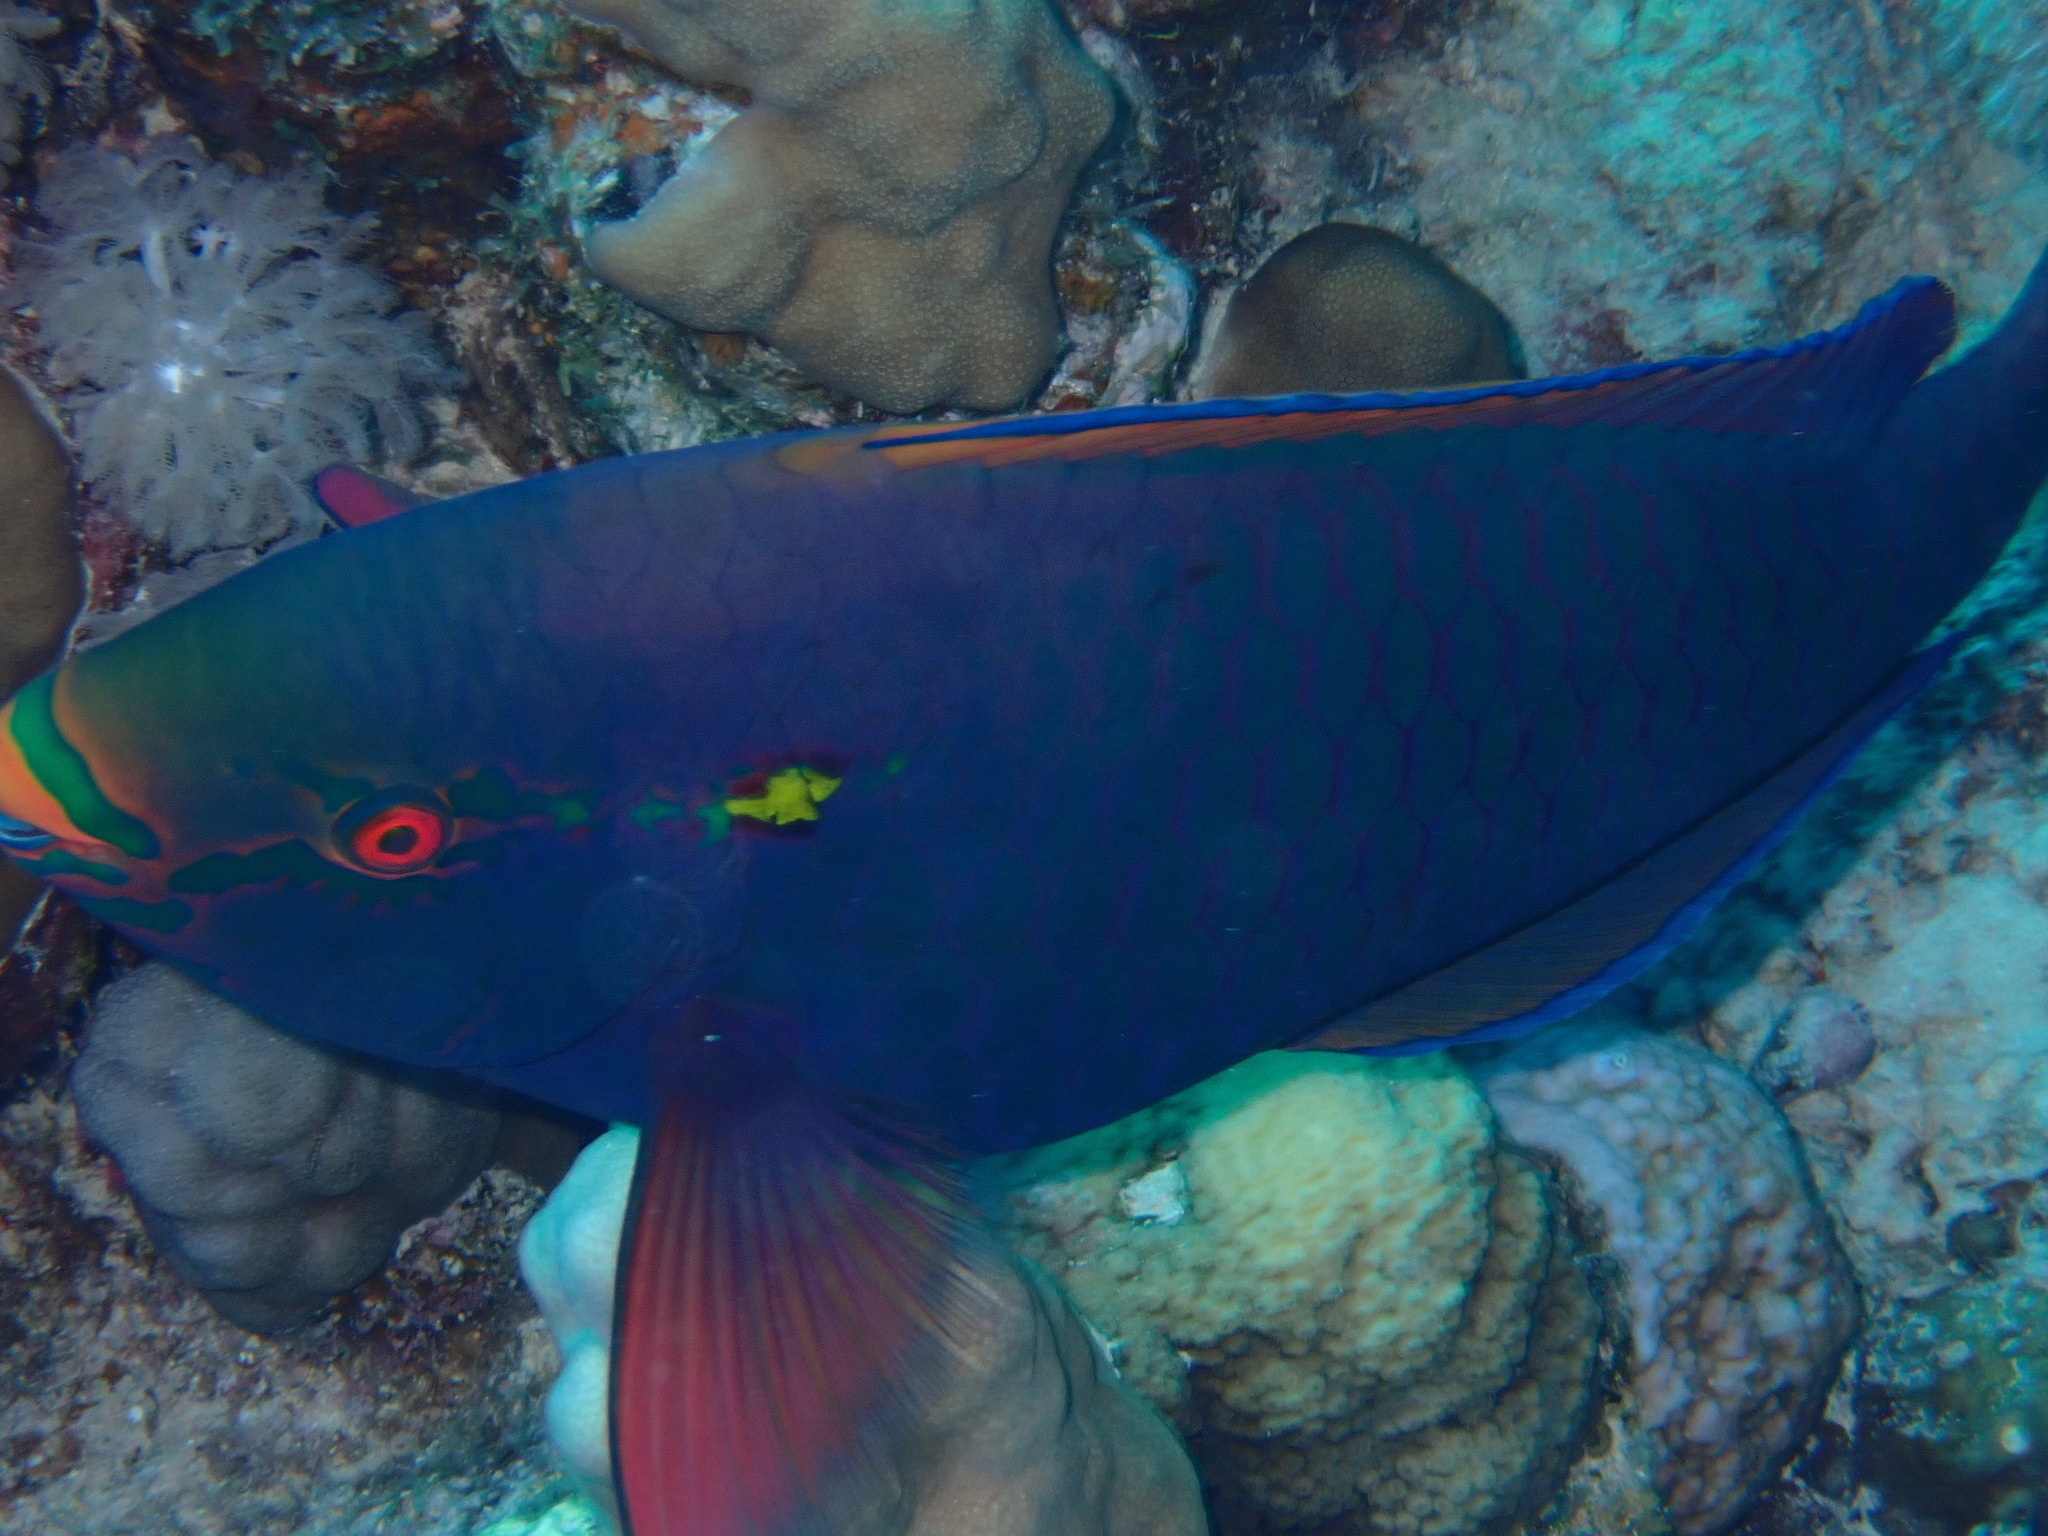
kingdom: Animalia
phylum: Chordata
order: Perciformes
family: Scaridae
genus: Scarus
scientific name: Scarus niger
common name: Dusky parrotfish
